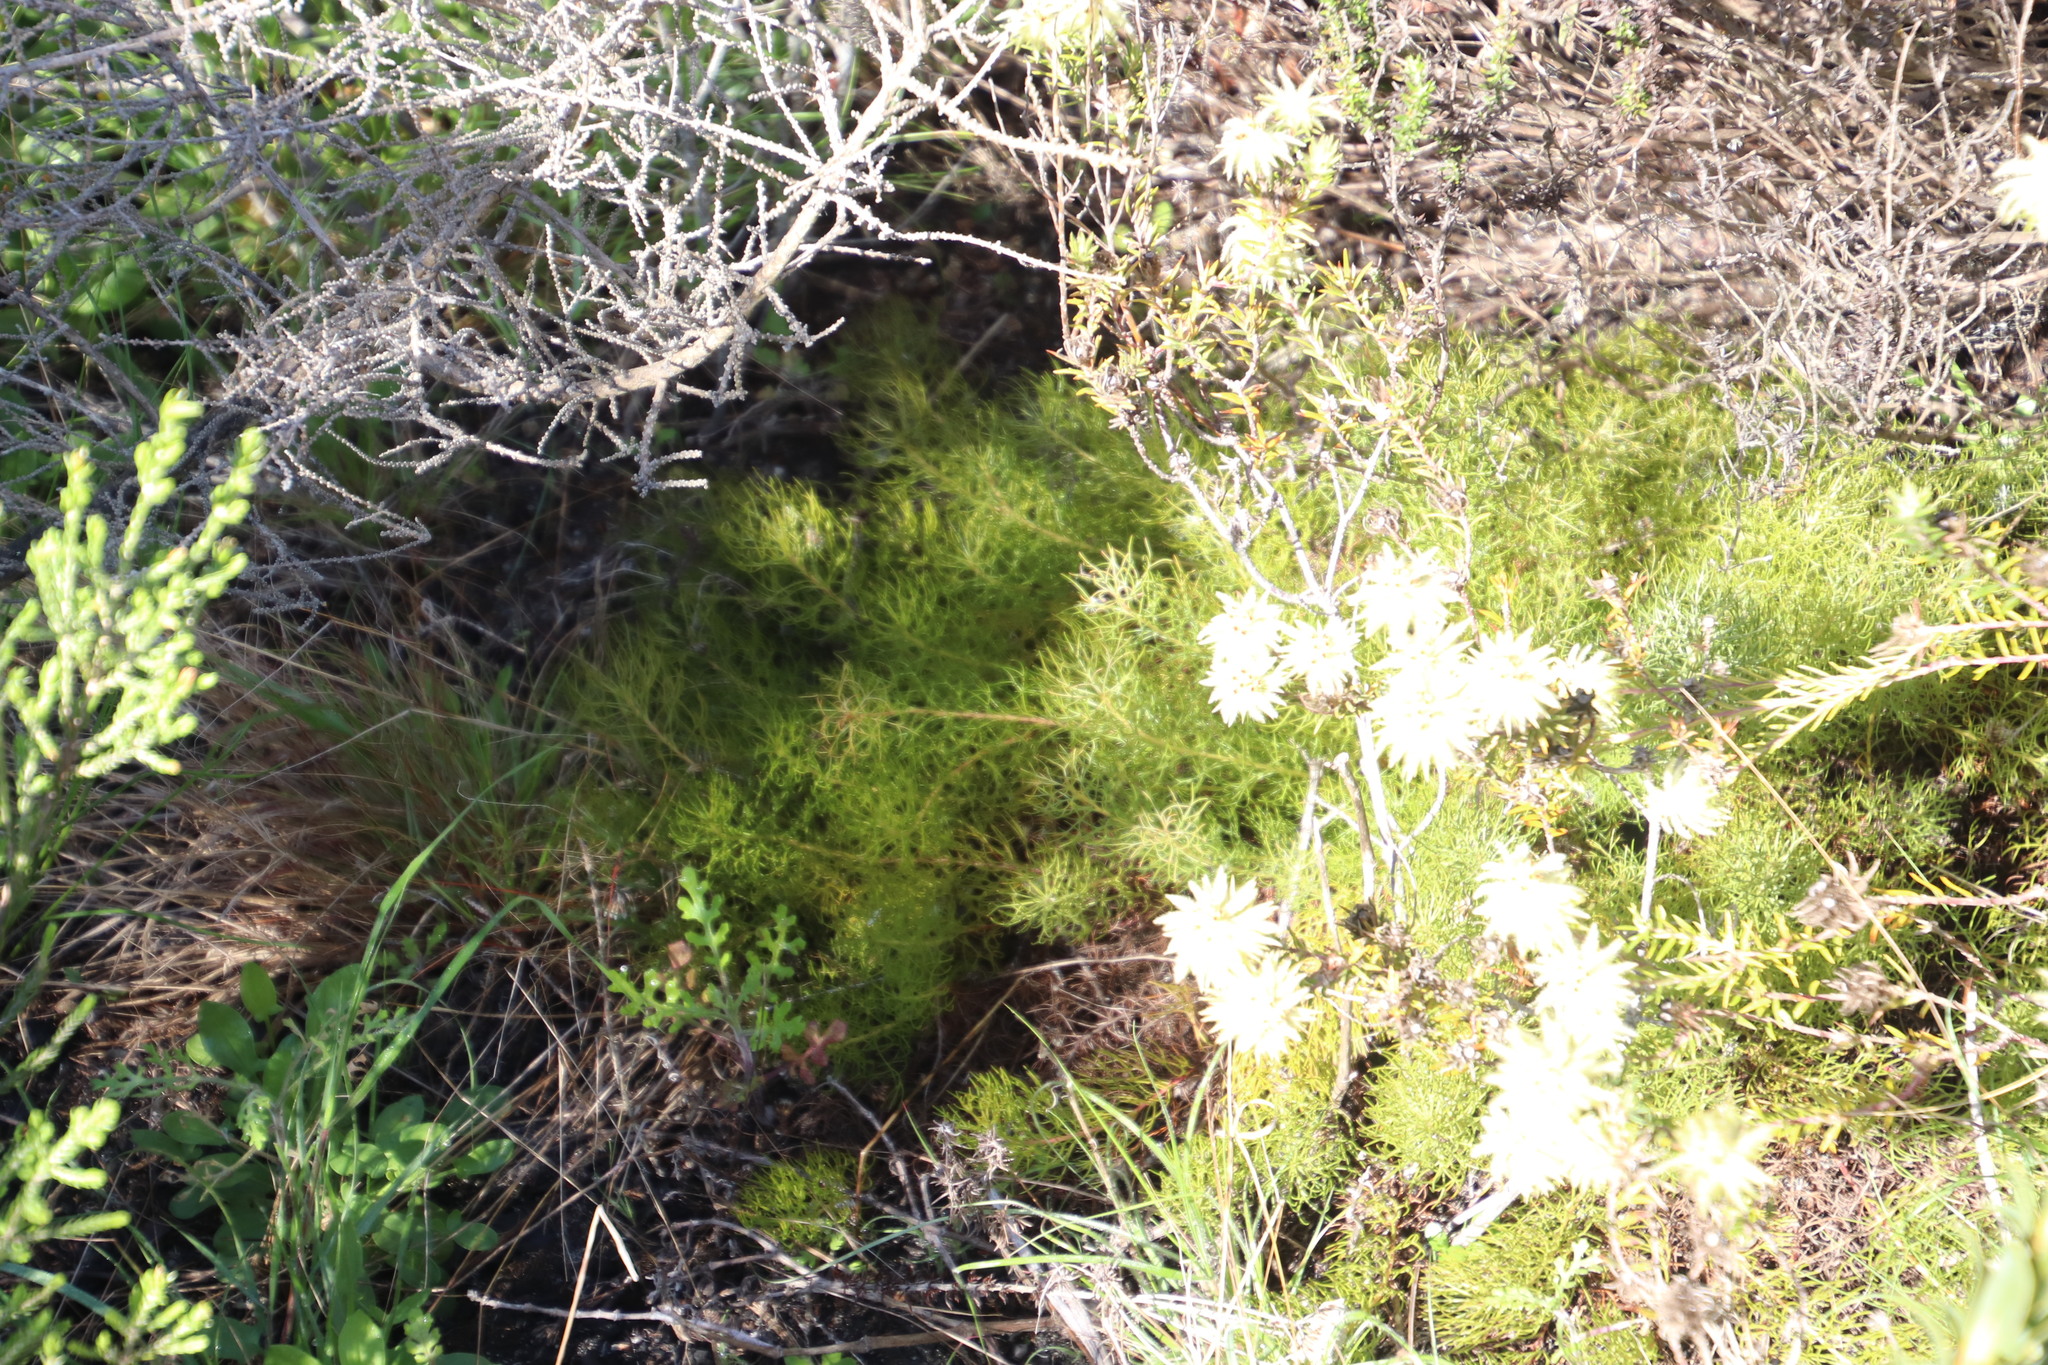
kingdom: Plantae
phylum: Tracheophyta
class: Magnoliopsida
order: Proteales
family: Proteaceae
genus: Serruria
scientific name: Serruria cyanoides
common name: Wynberg spiderhead
